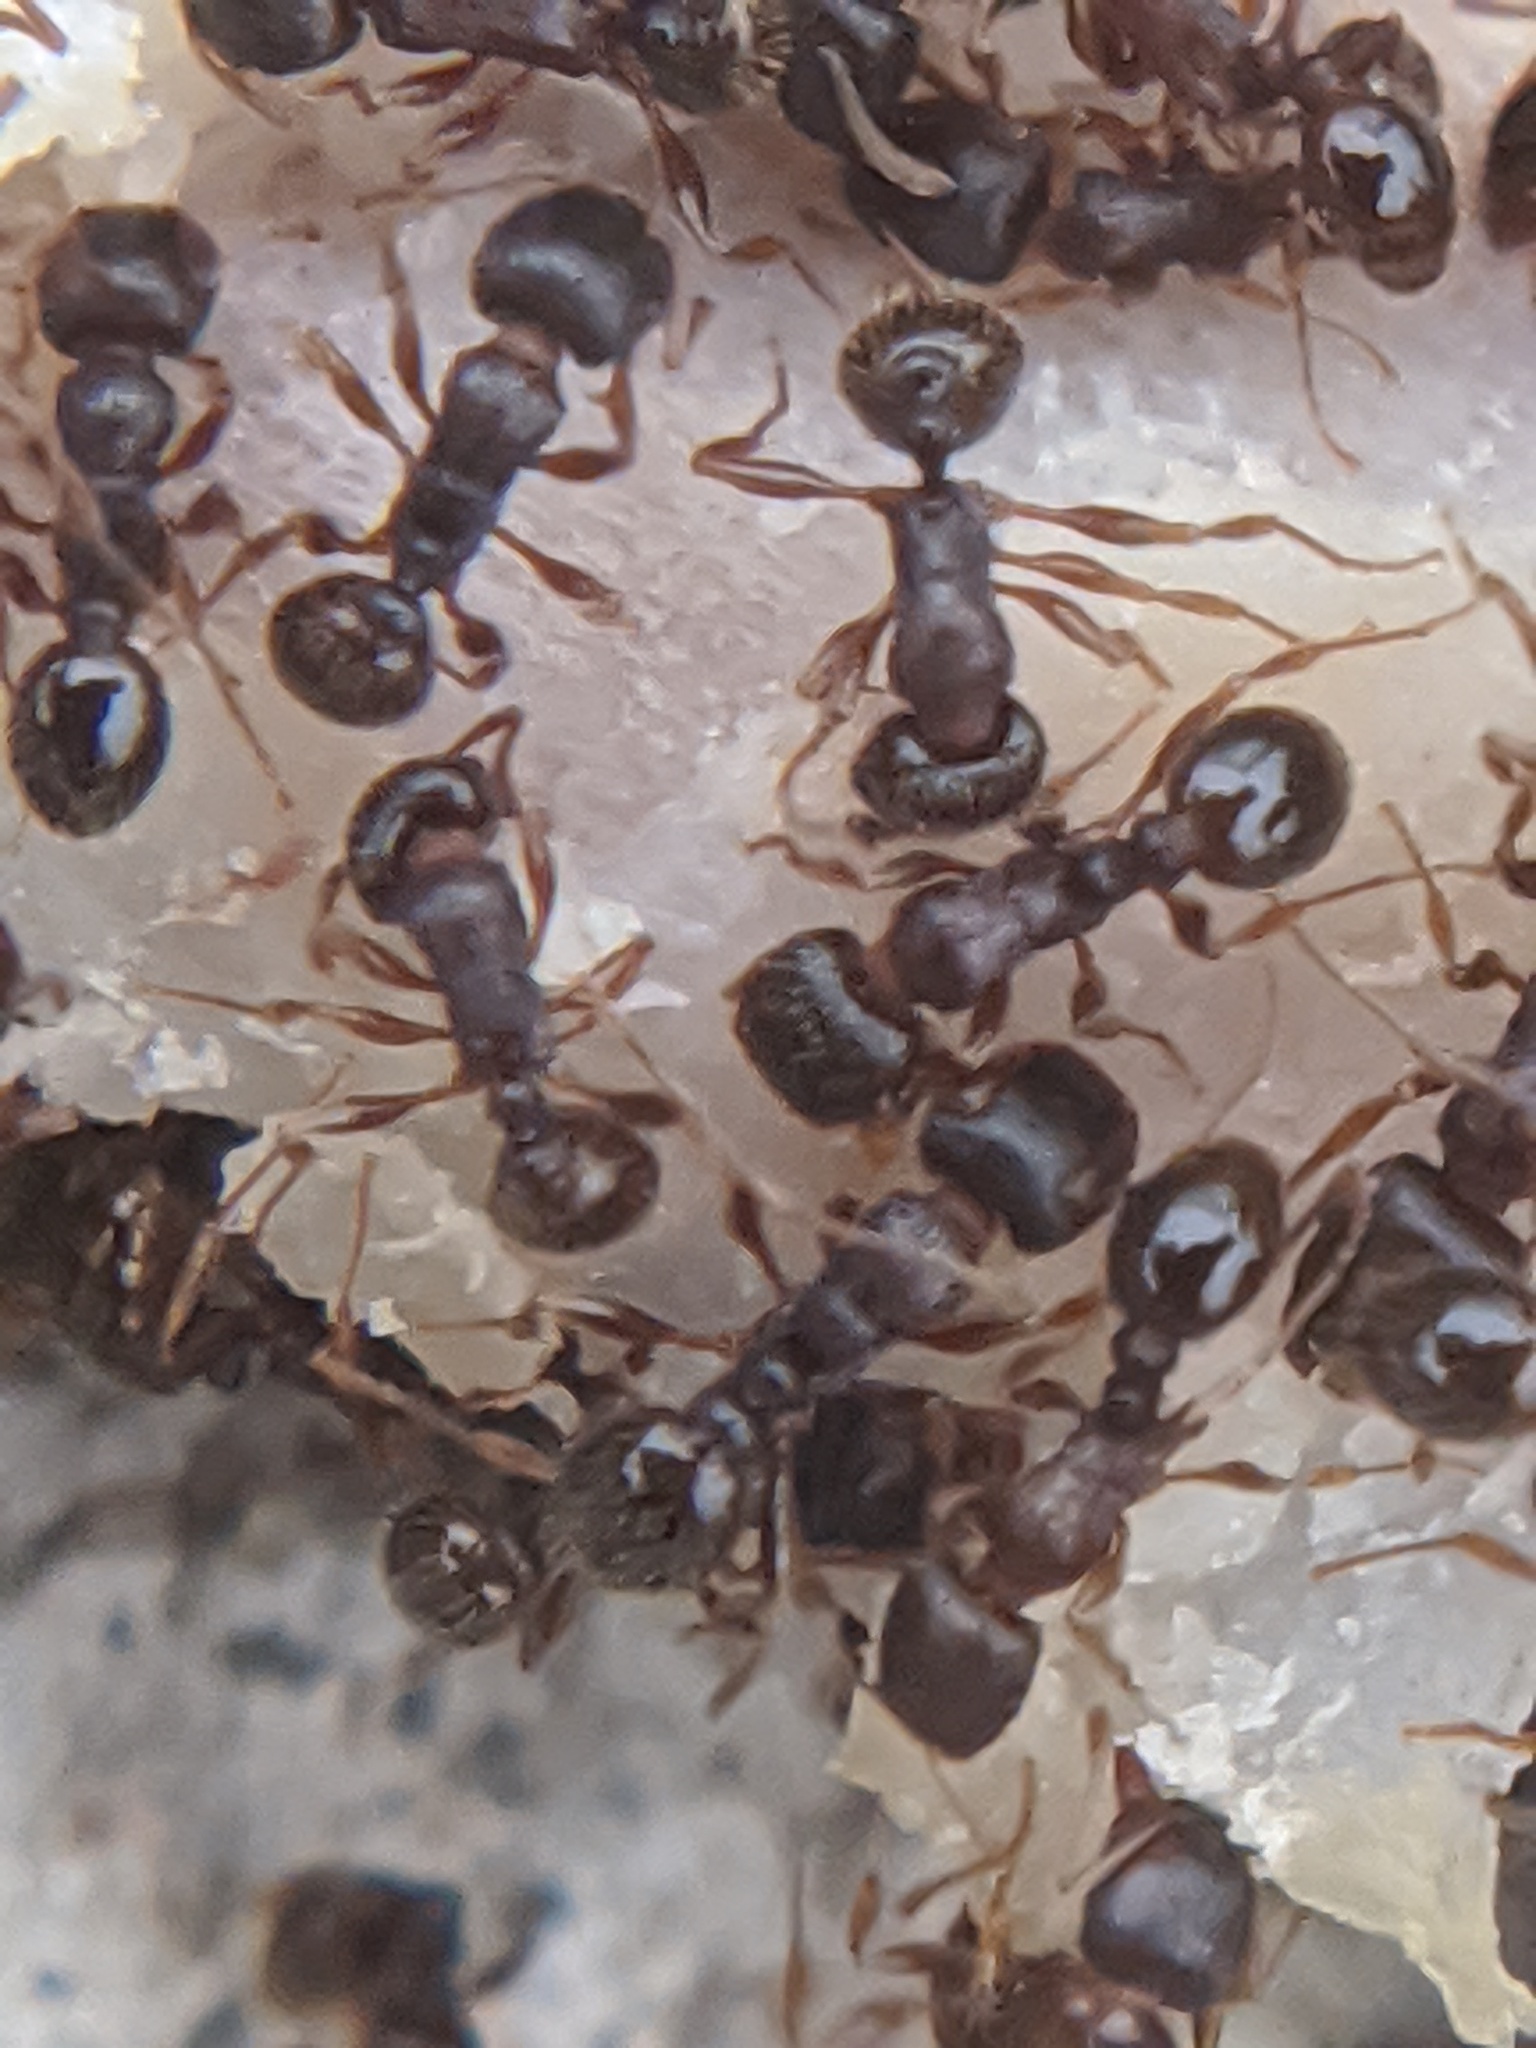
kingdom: Animalia
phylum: Arthropoda
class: Insecta
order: Hymenoptera
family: Formicidae
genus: Tetramorium
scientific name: Tetramorium immigrans
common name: Pavement ant
